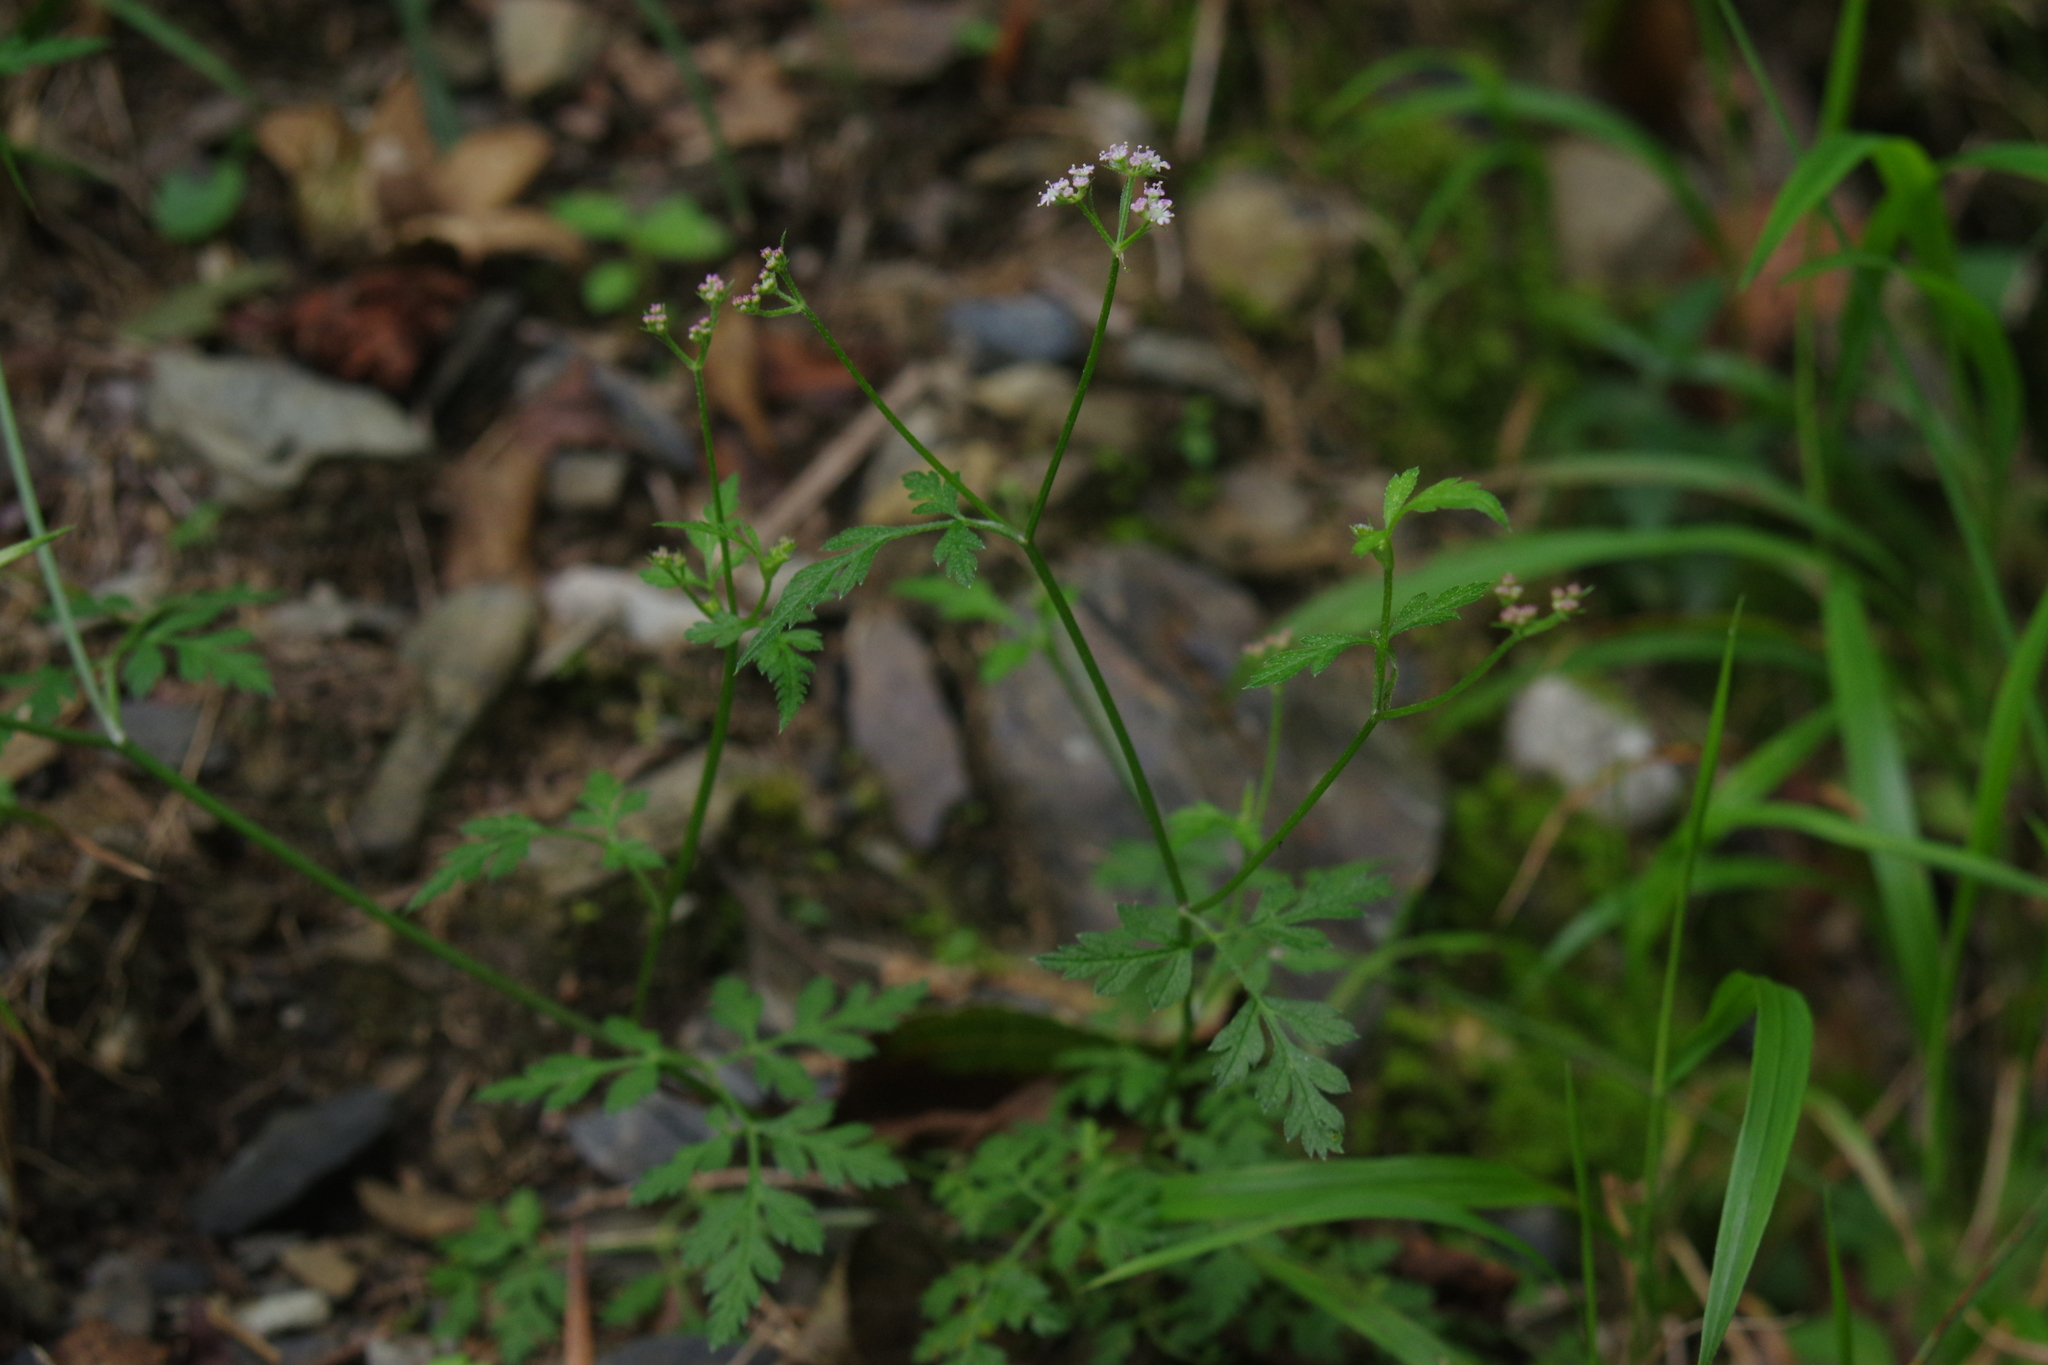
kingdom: Plantae
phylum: Tracheophyta
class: Magnoliopsida
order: Apiales
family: Apiaceae
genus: Torilis
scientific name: Torilis japonica
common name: Upright hedge-parsley
